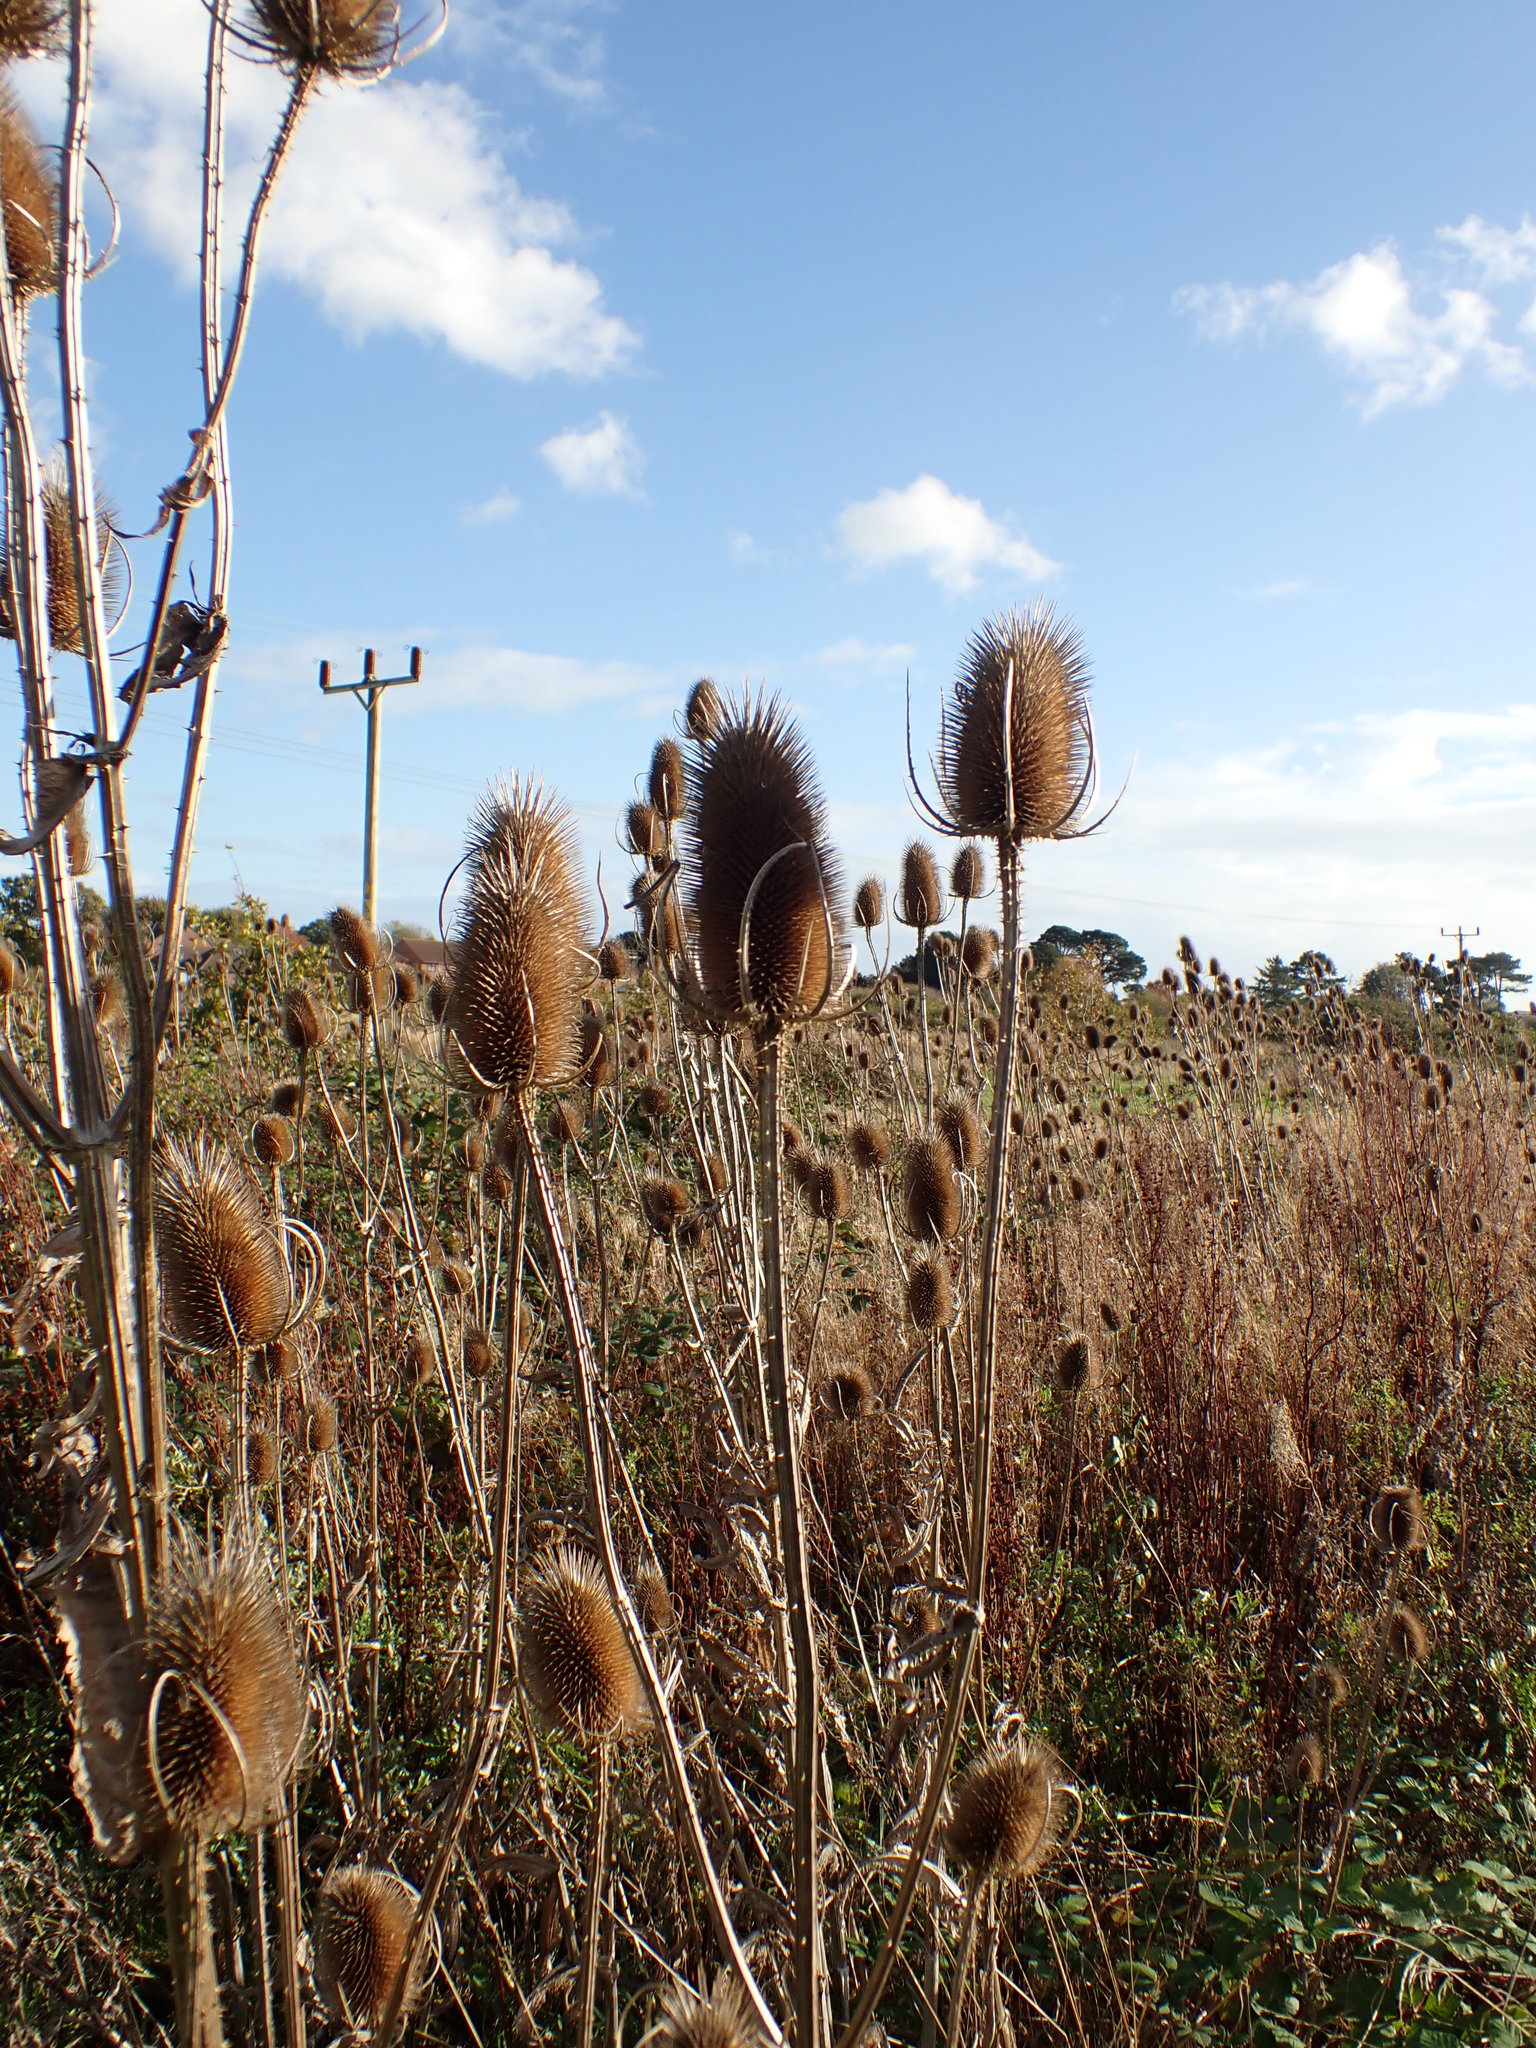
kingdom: Plantae
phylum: Tracheophyta
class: Magnoliopsida
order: Dipsacales
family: Caprifoliaceae
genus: Dipsacus
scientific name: Dipsacus fullonum
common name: Teasel
